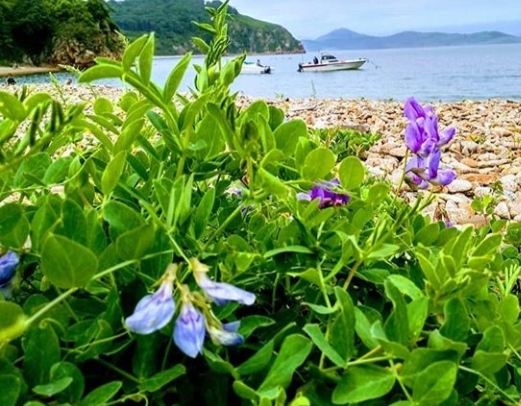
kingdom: Plantae
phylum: Tracheophyta
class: Magnoliopsida
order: Fabales
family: Fabaceae
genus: Lathyrus
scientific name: Lathyrus japonicus
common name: Sea pea
